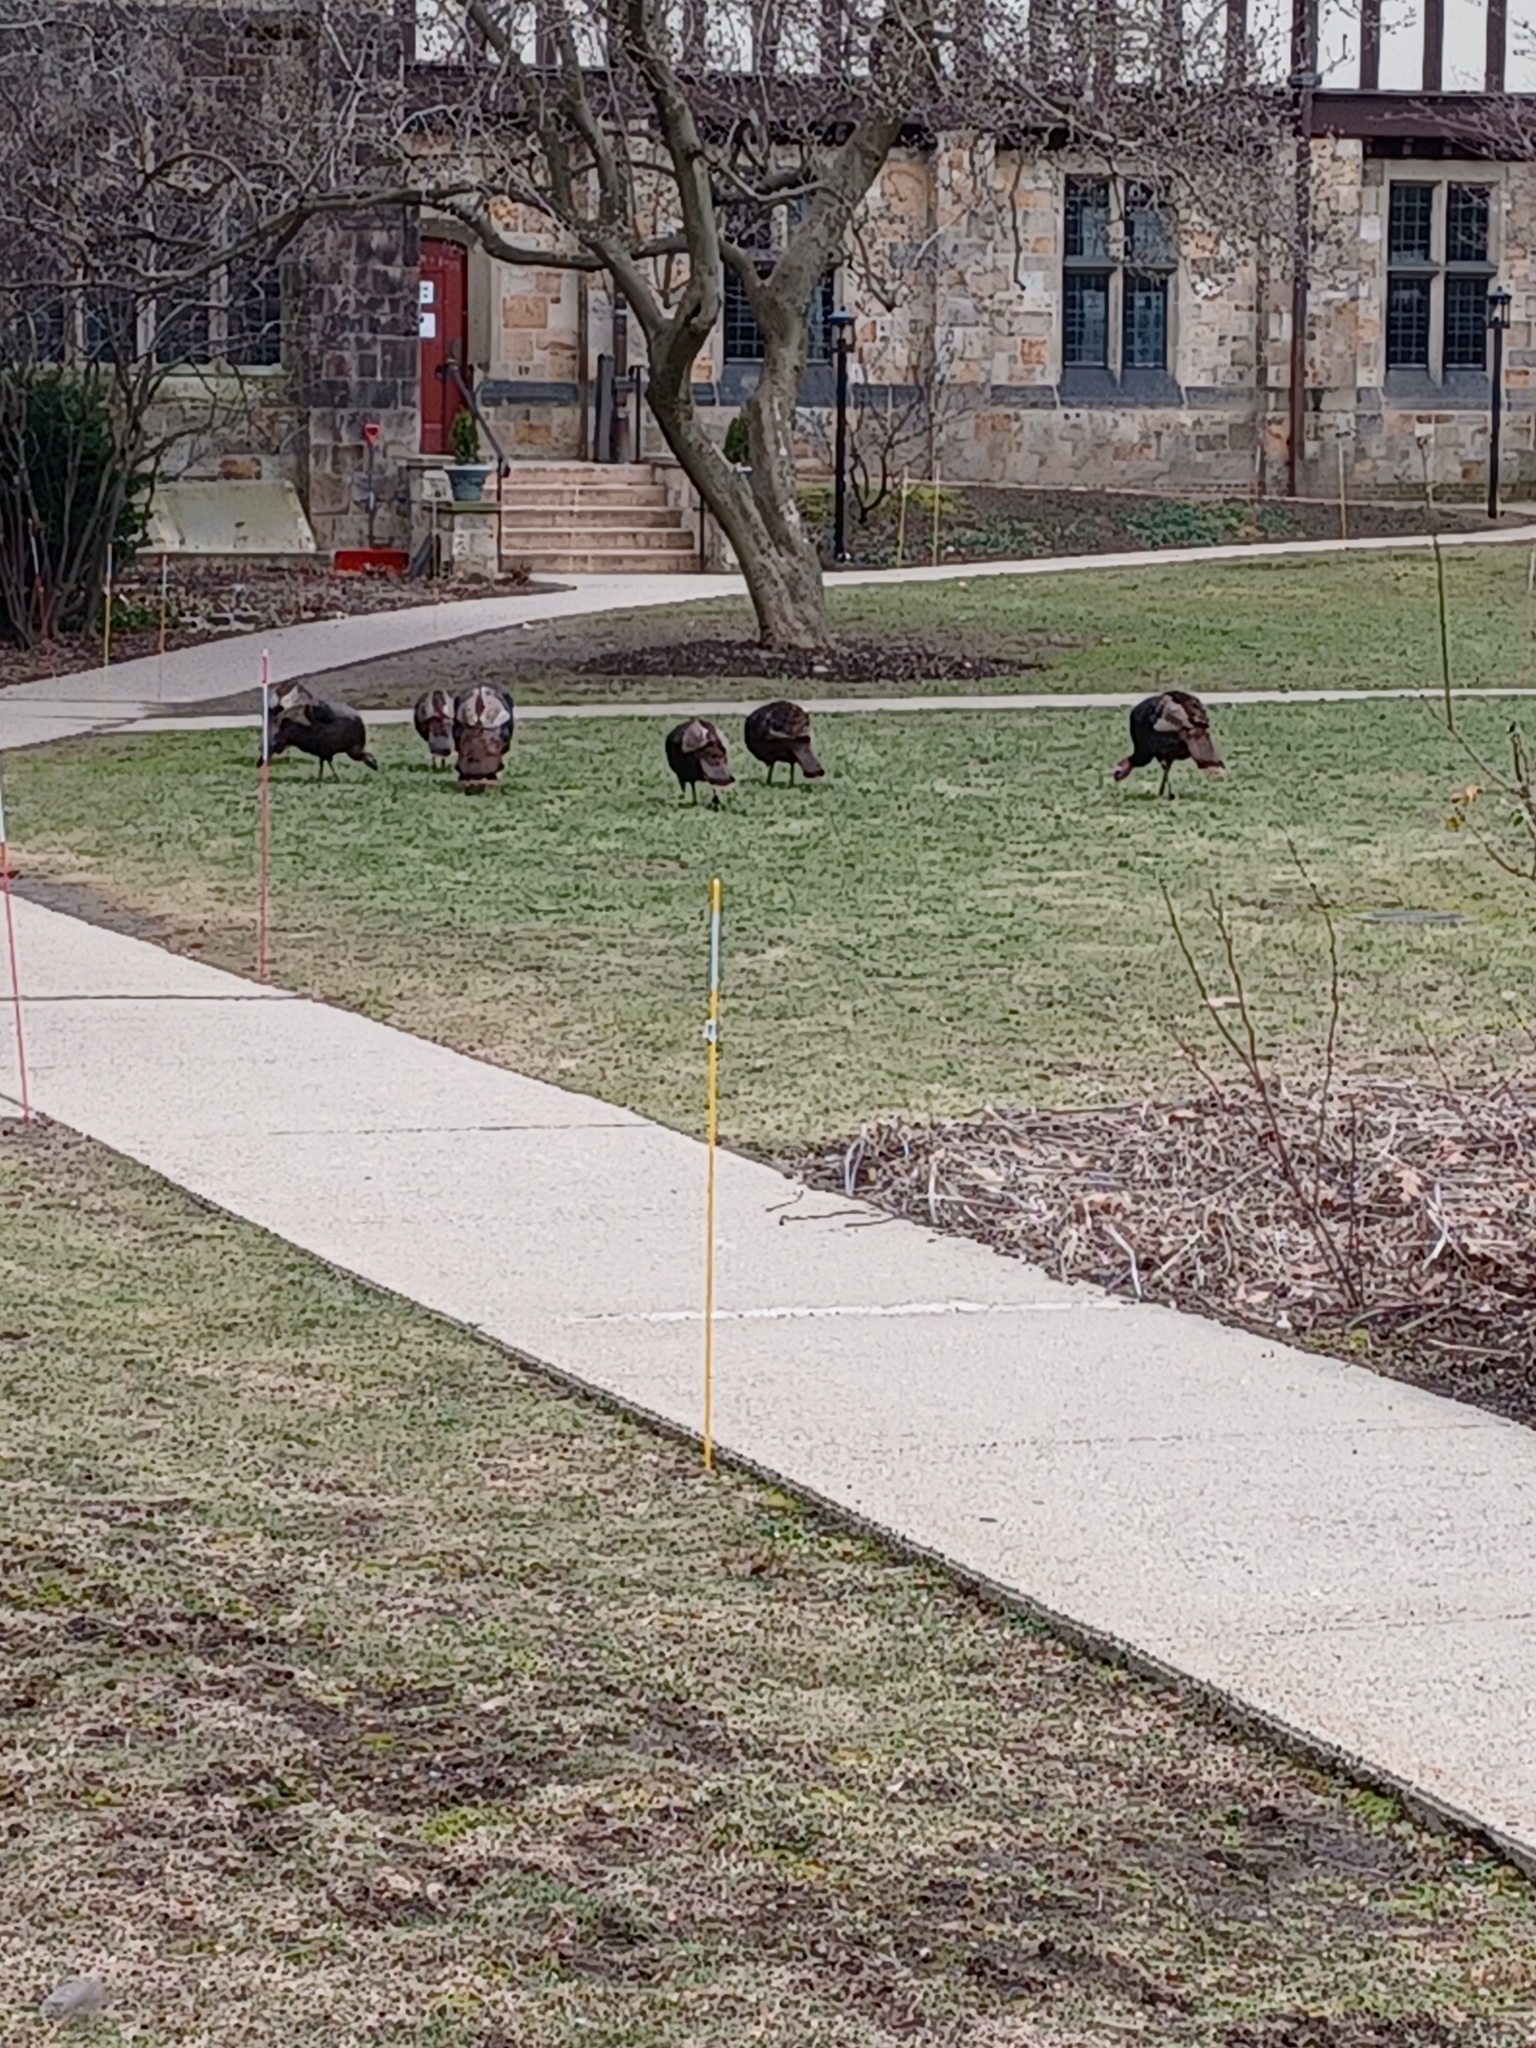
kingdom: Animalia
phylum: Chordata
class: Aves
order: Galliformes
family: Phasianidae
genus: Meleagris
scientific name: Meleagris gallopavo
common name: Wild turkey
